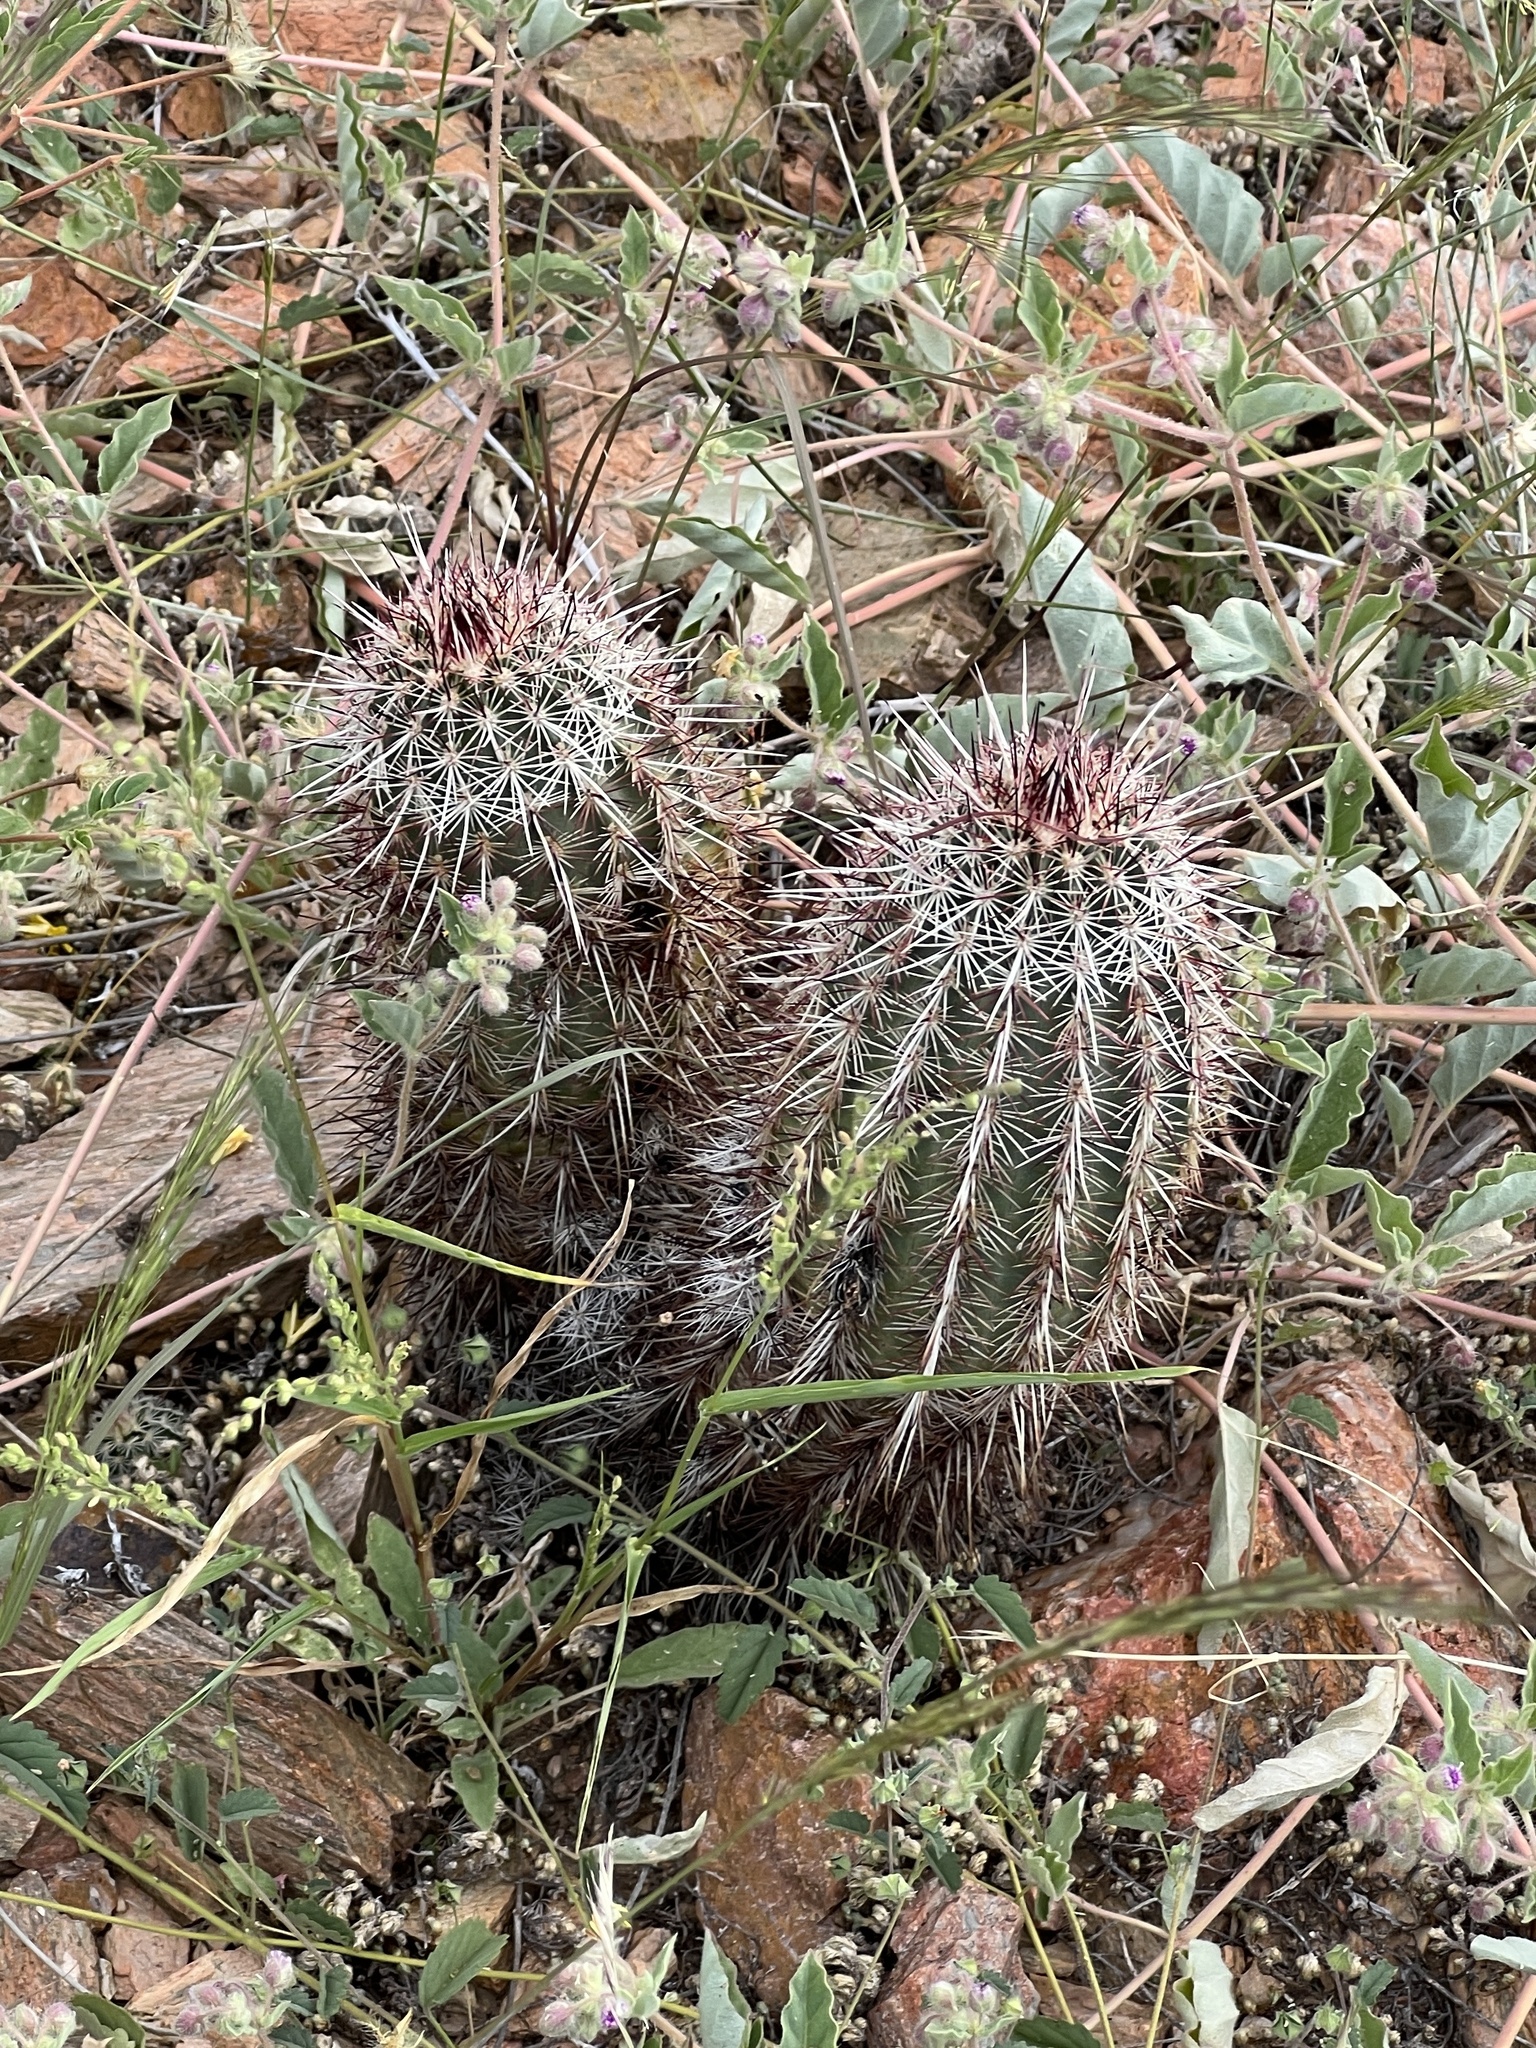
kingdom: Plantae
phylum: Tracheophyta
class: Magnoliopsida
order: Caryophyllales
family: Cactaceae
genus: Echinocereus
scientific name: Echinocereus viridiflorus
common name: Nylon hedgehog cactus
